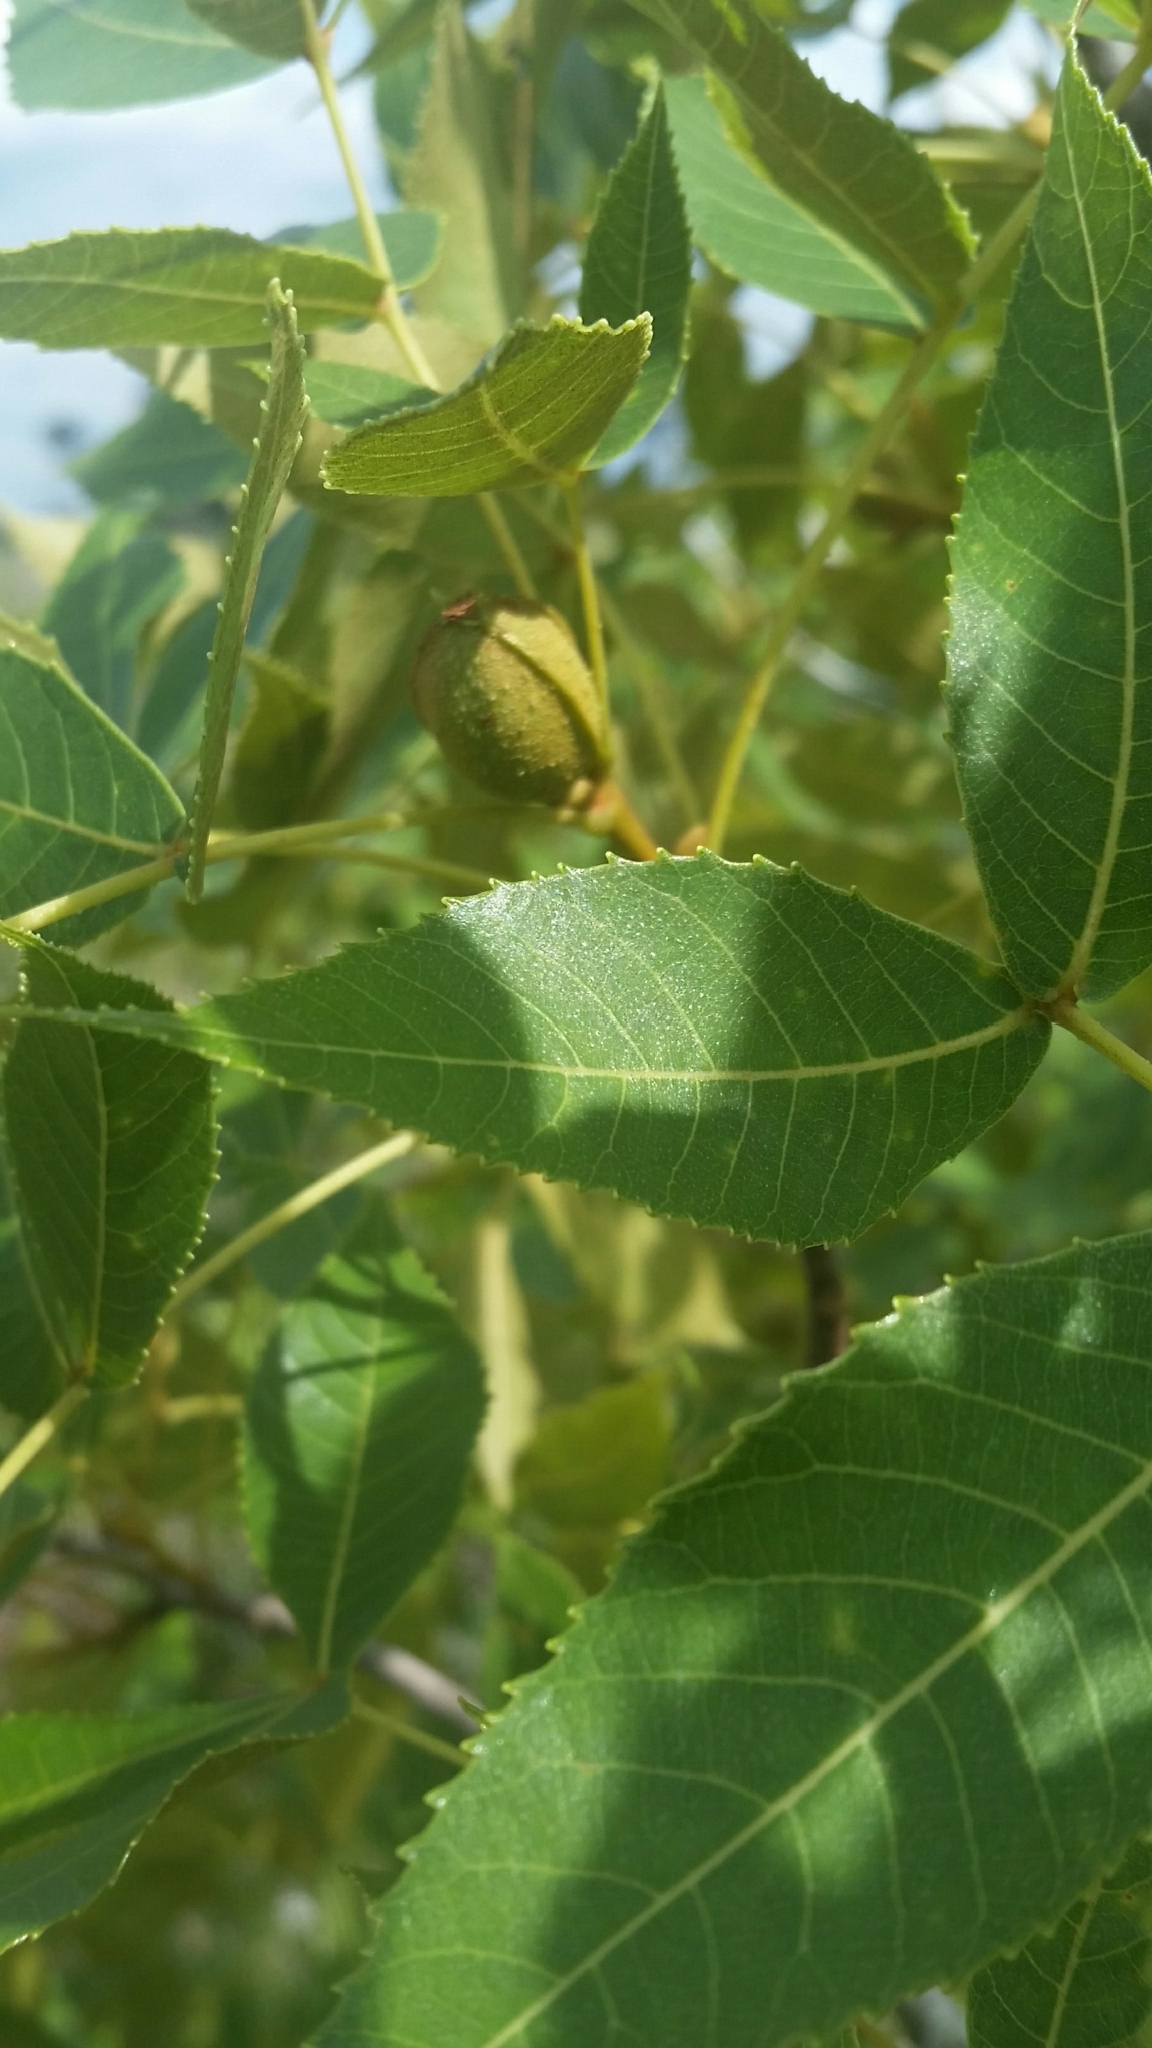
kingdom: Plantae
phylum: Tracheophyta
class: Magnoliopsida
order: Fagales
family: Juglandaceae
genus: Carya
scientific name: Carya floridana
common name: Scrub hickory
